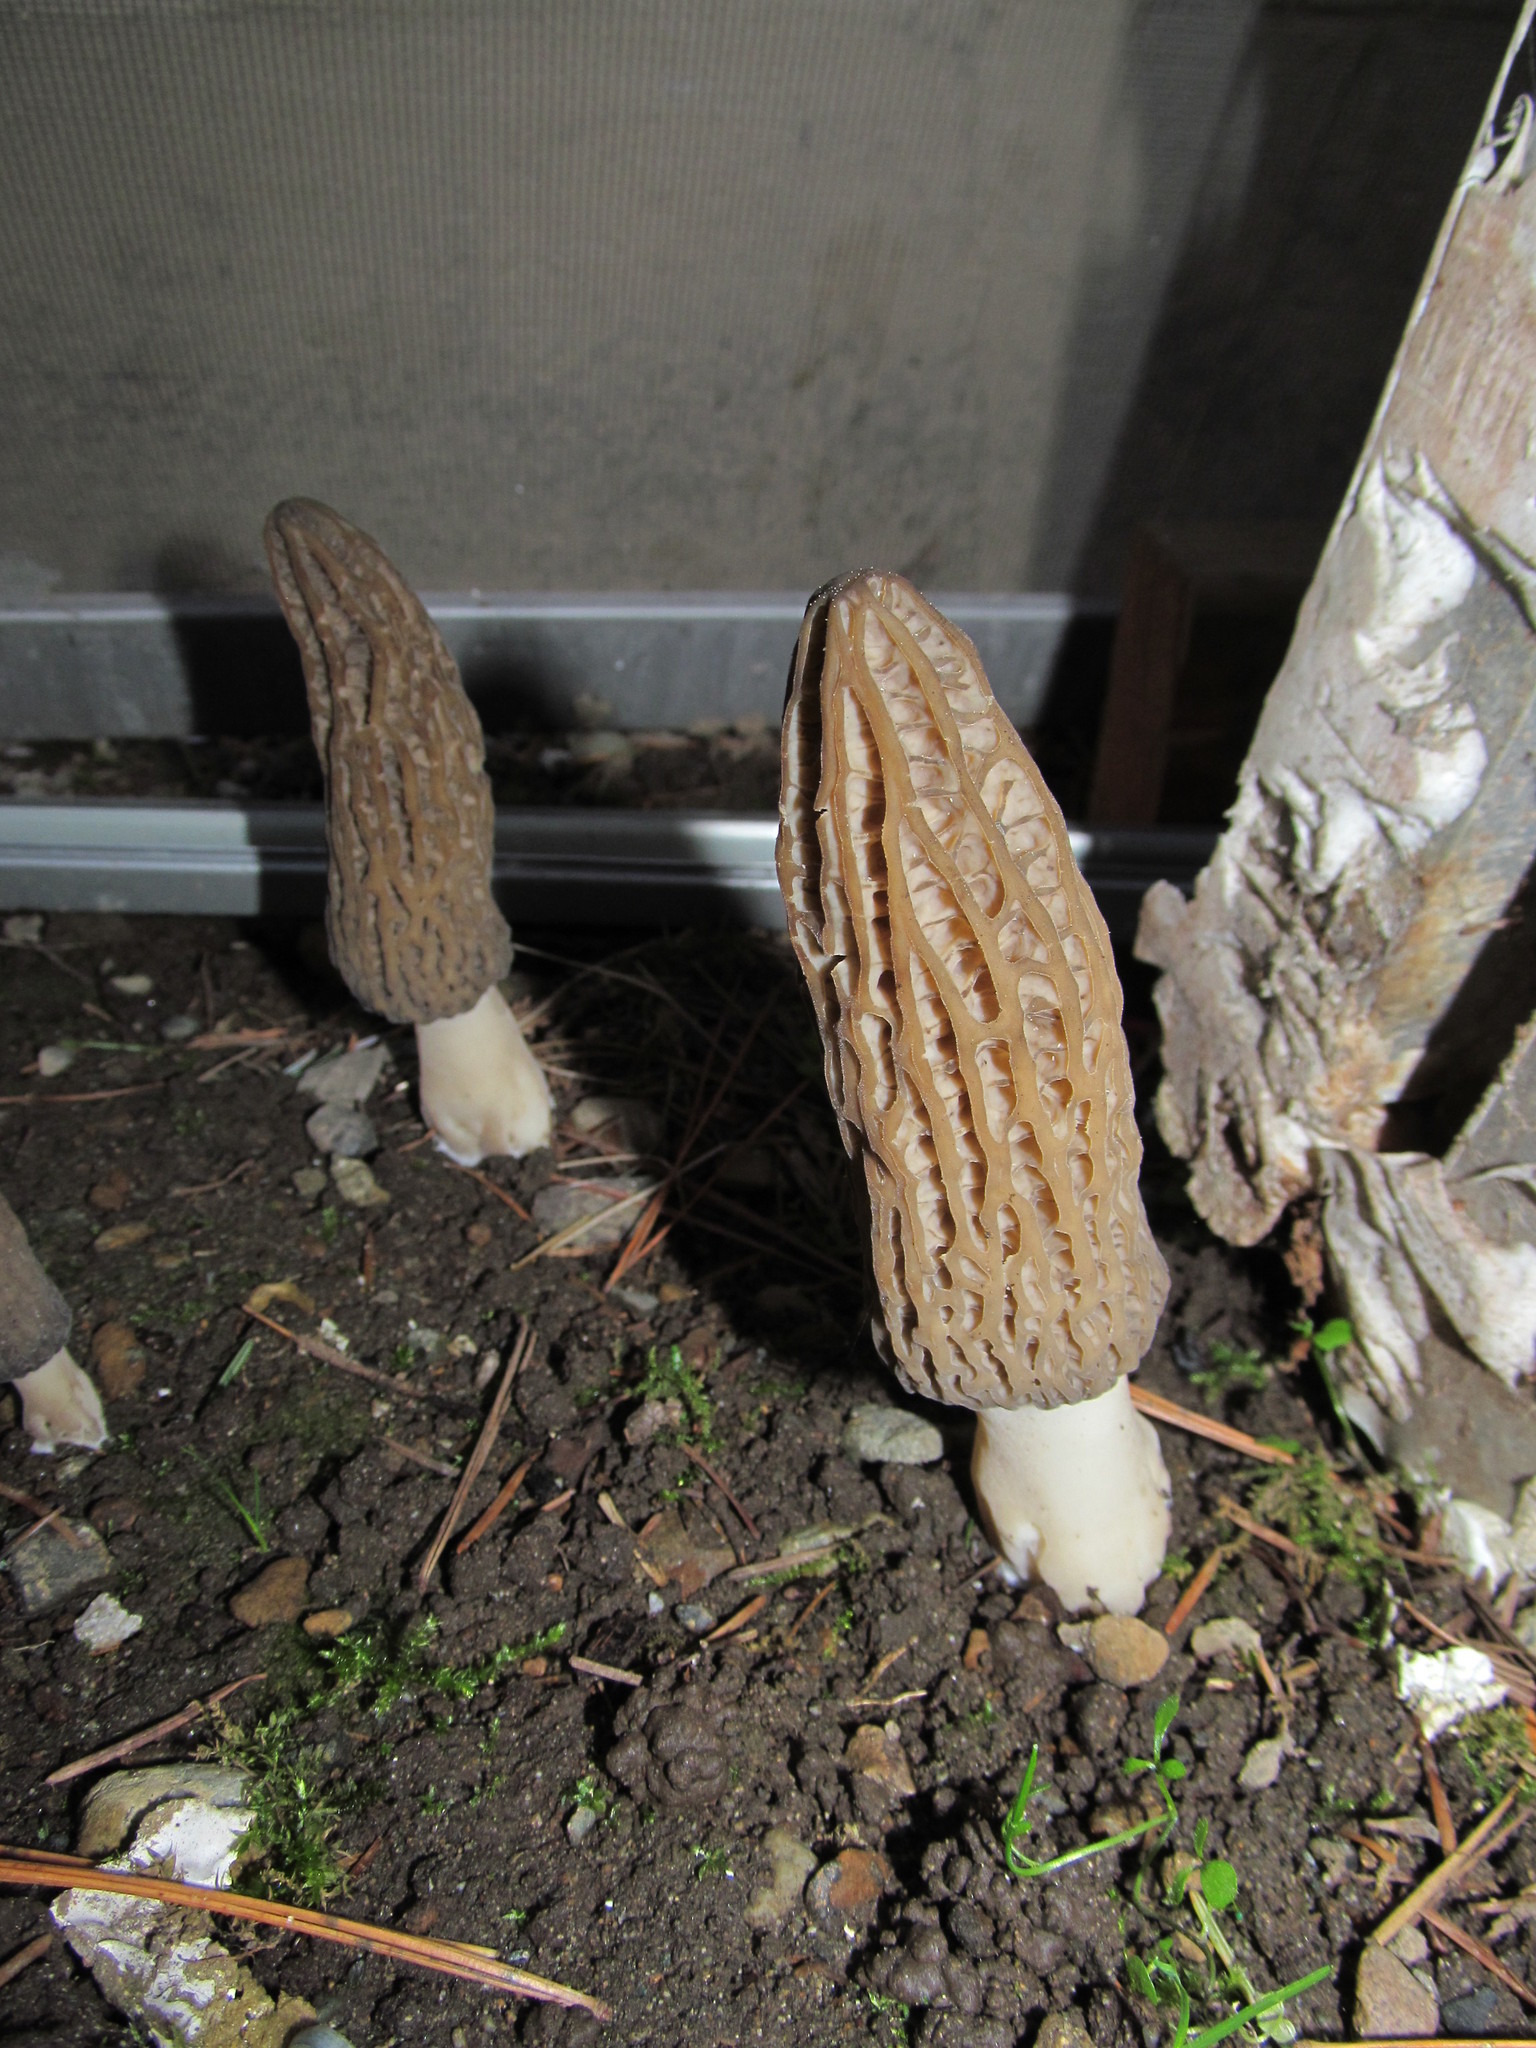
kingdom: Fungi
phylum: Ascomycota
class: Pezizomycetes
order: Pezizales
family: Morchellaceae
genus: Morchella
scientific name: Morchella importuna
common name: Landscaping black morel
